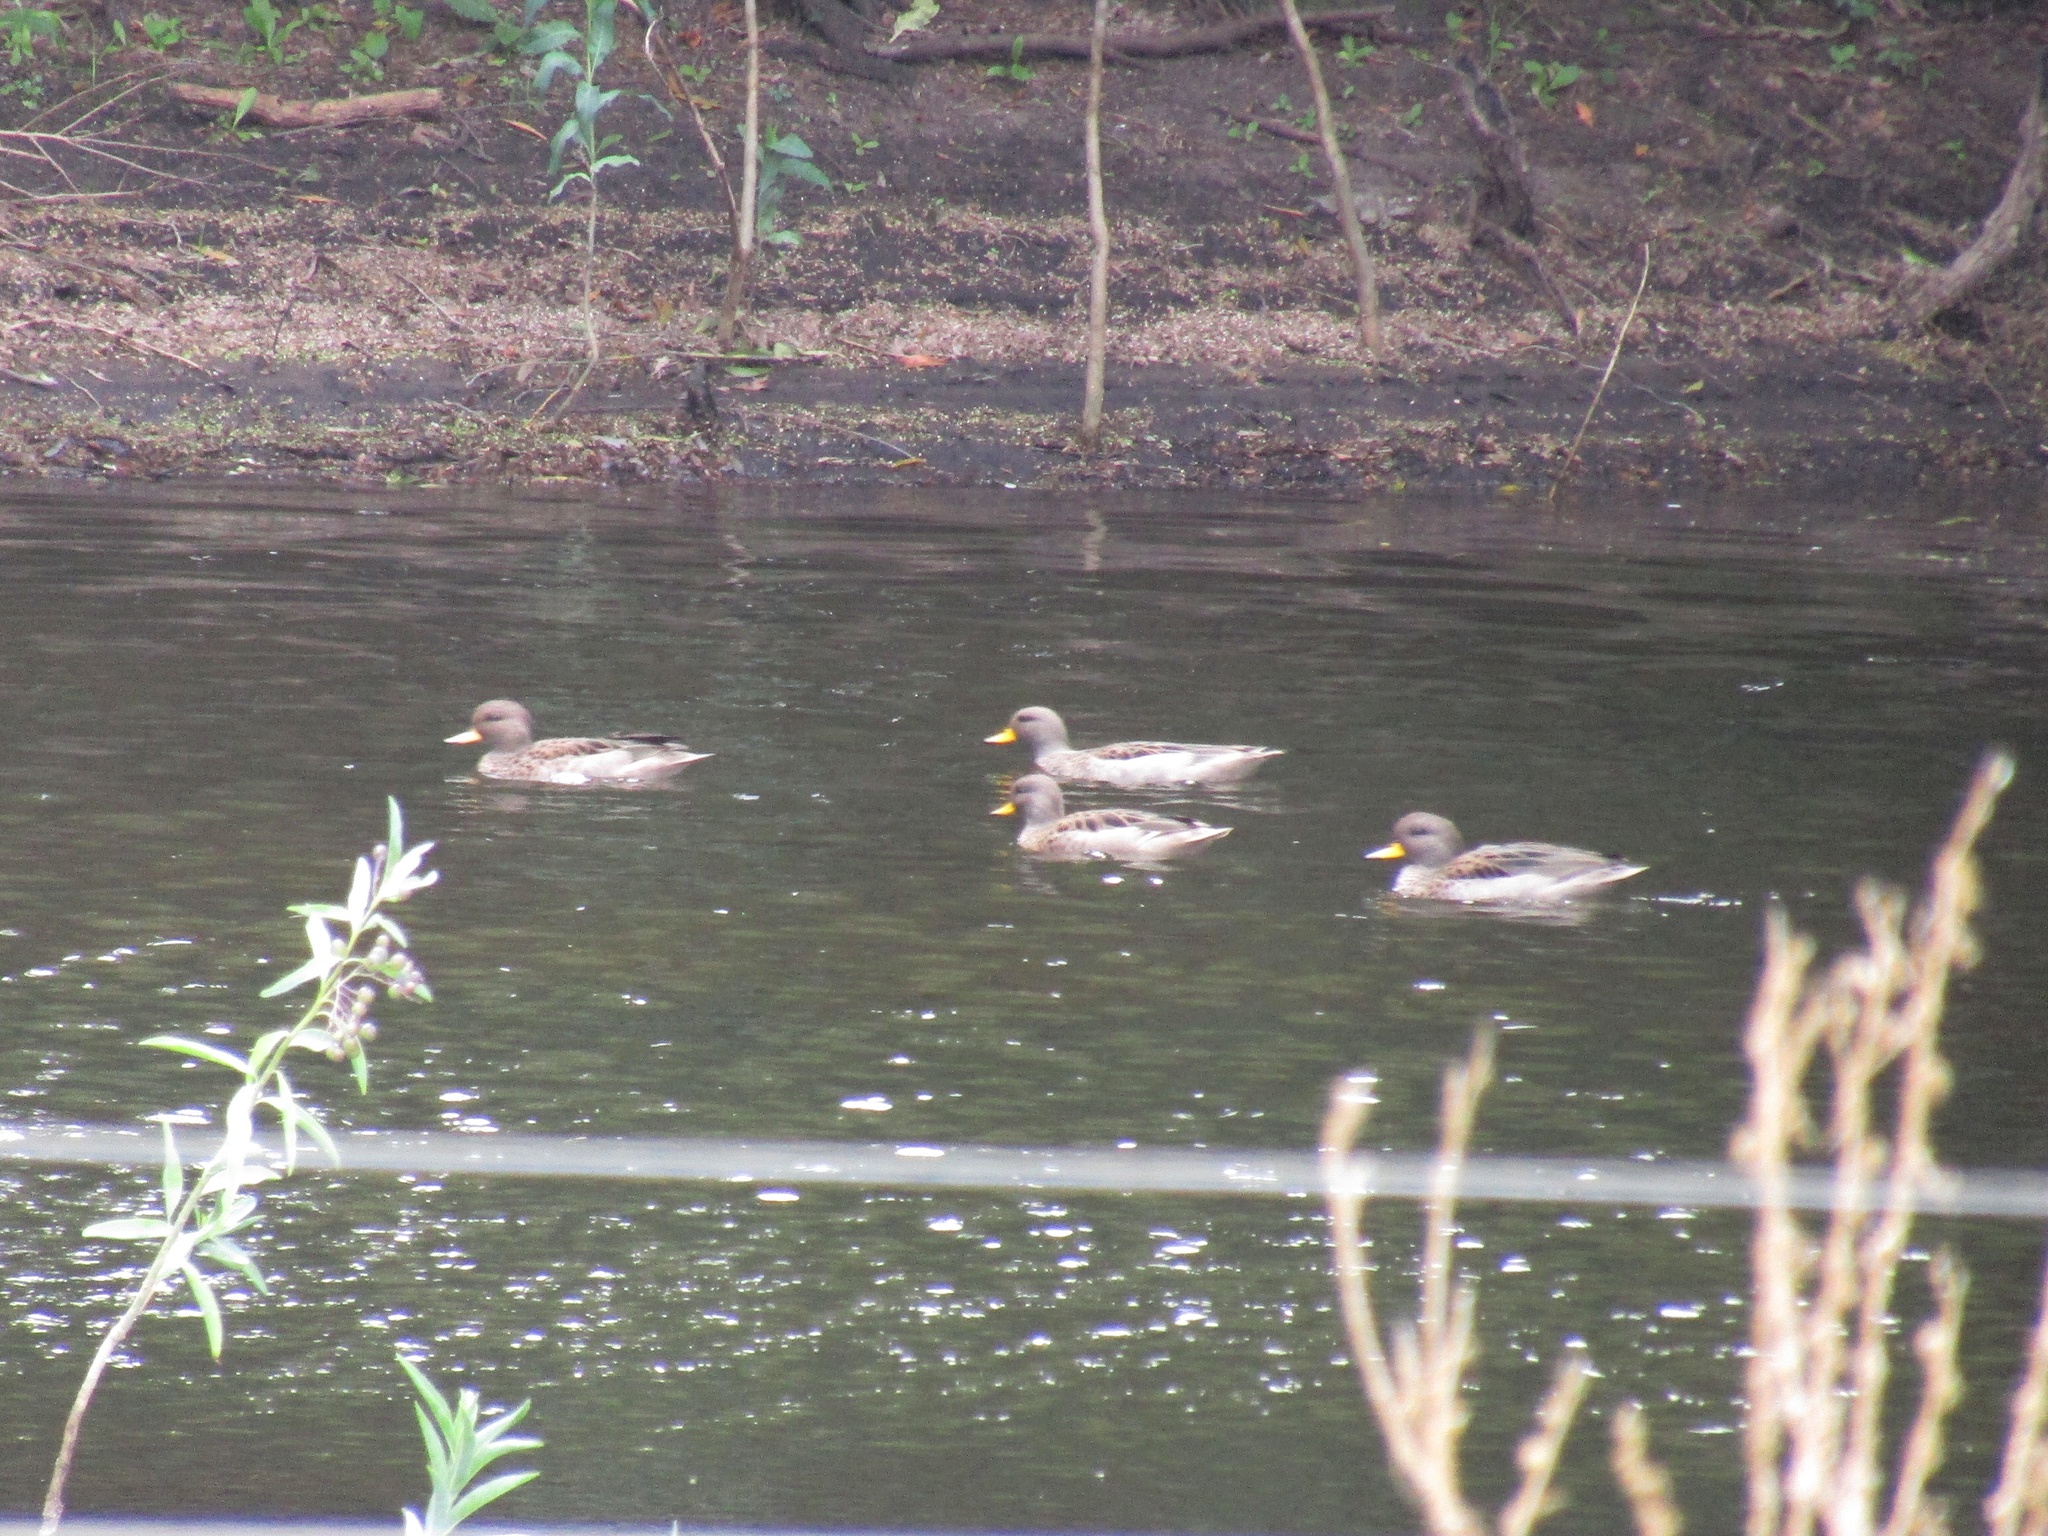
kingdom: Animalia
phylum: Chordata
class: Aves
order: Anseriformes
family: Anatidae
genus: Anas
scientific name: Anas flavirostris
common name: Yellow-billed teal
